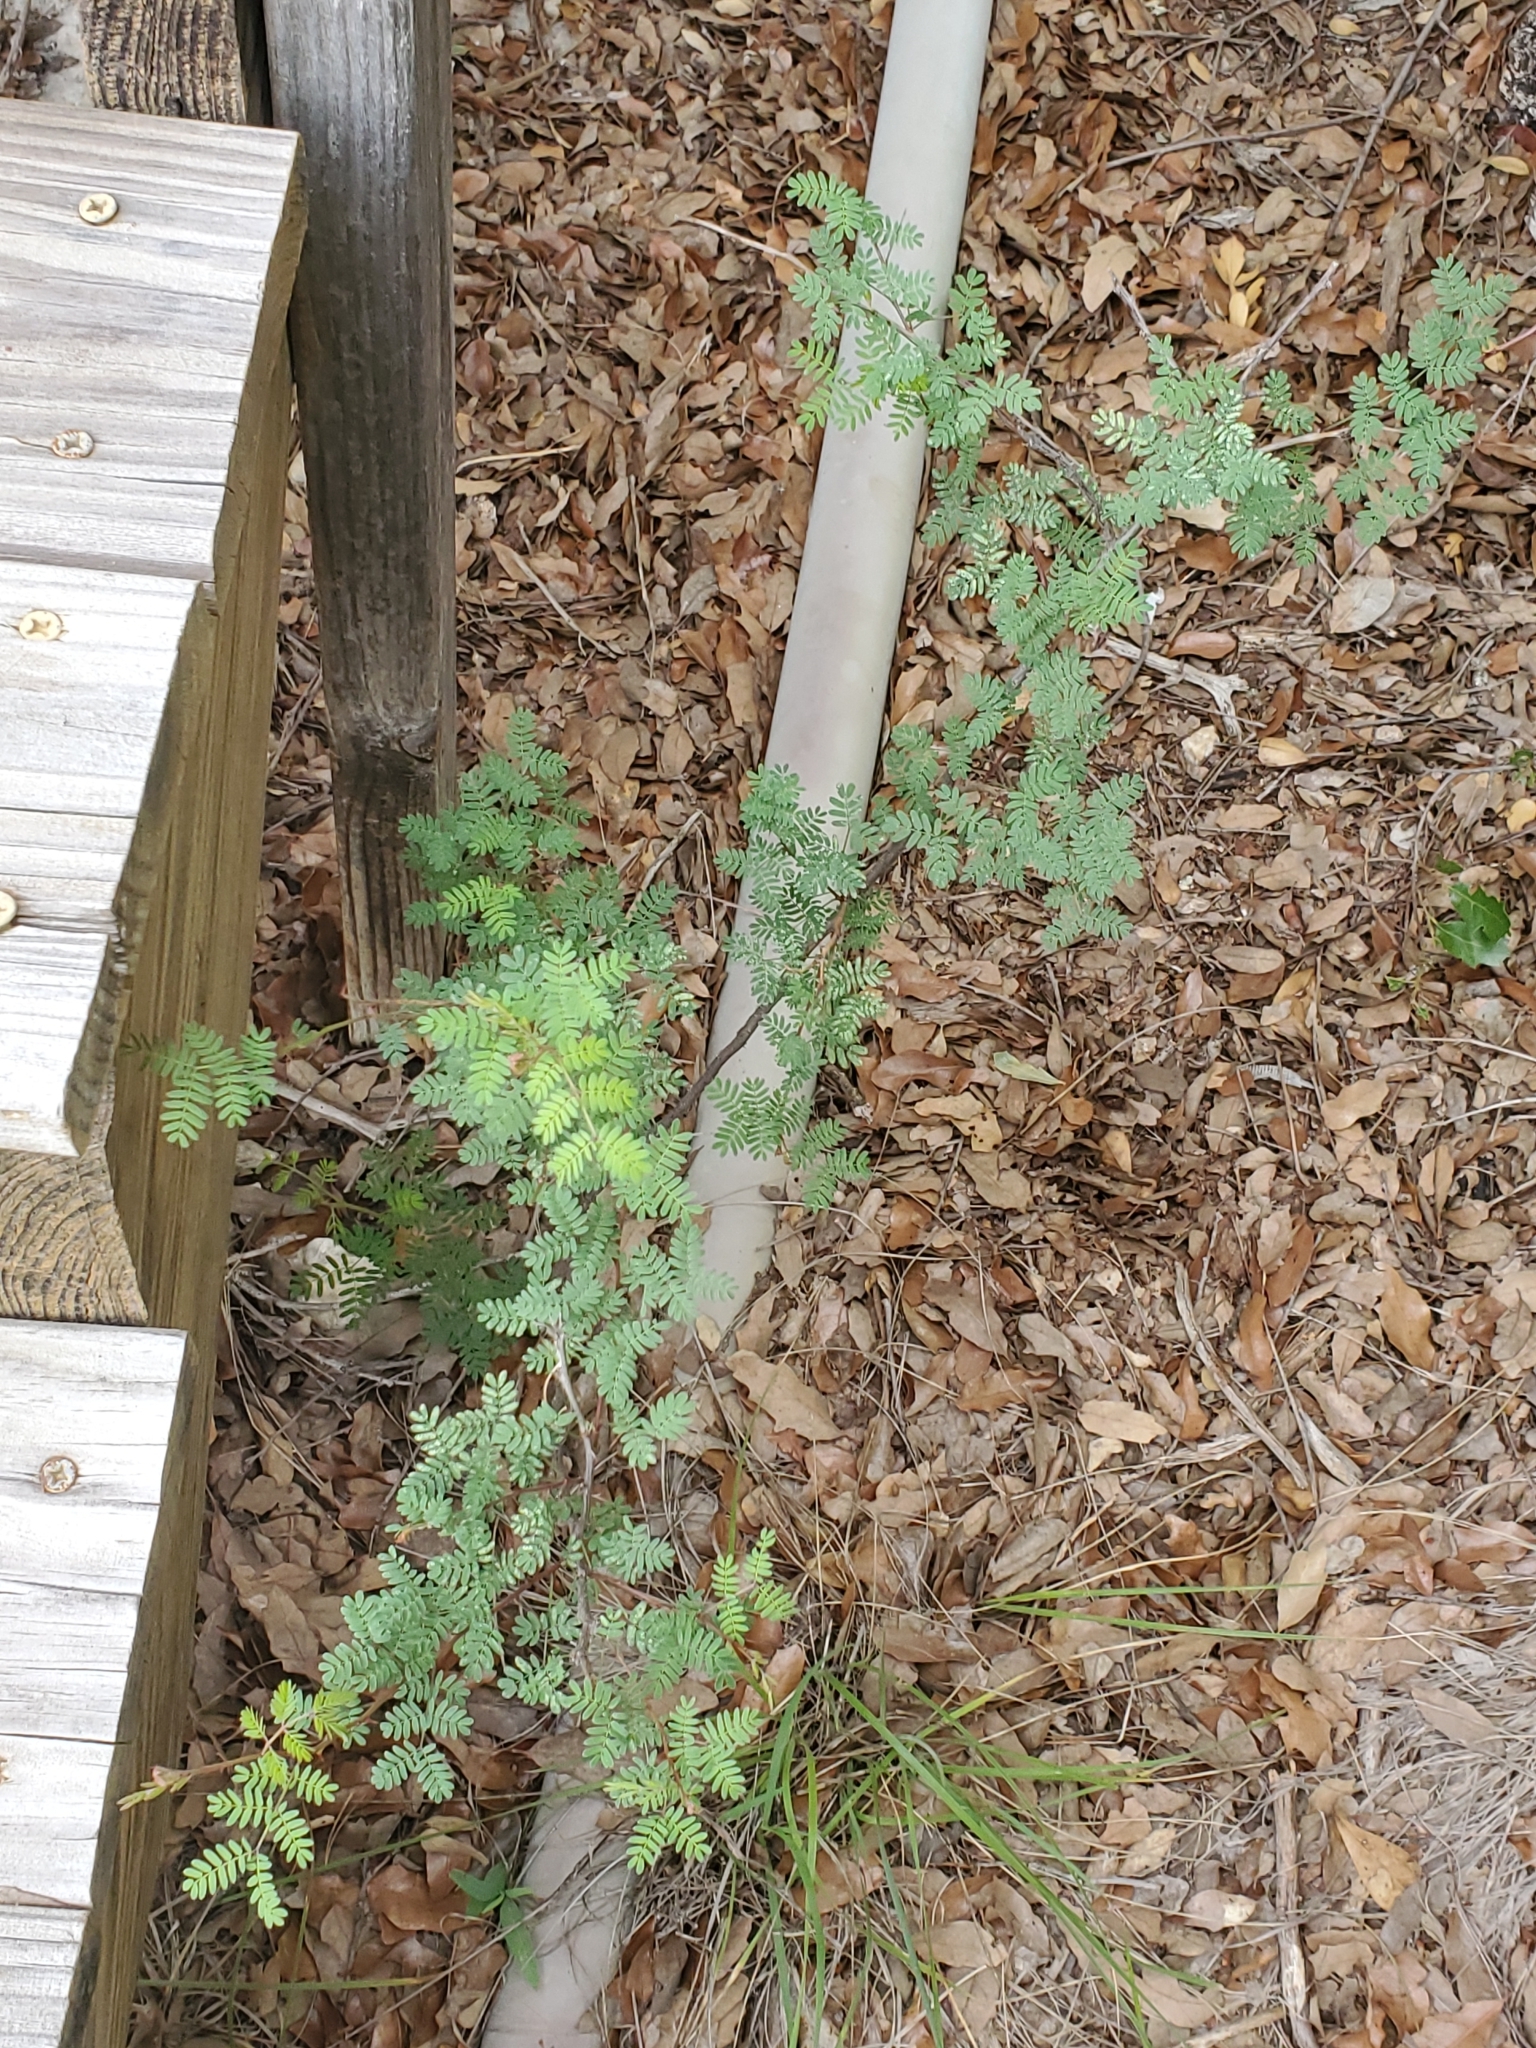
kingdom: Plantae
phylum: Tracheophyta
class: Magnoliopsida
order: Fabales
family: Fabaceae
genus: Mimosa
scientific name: Mimosa texana
